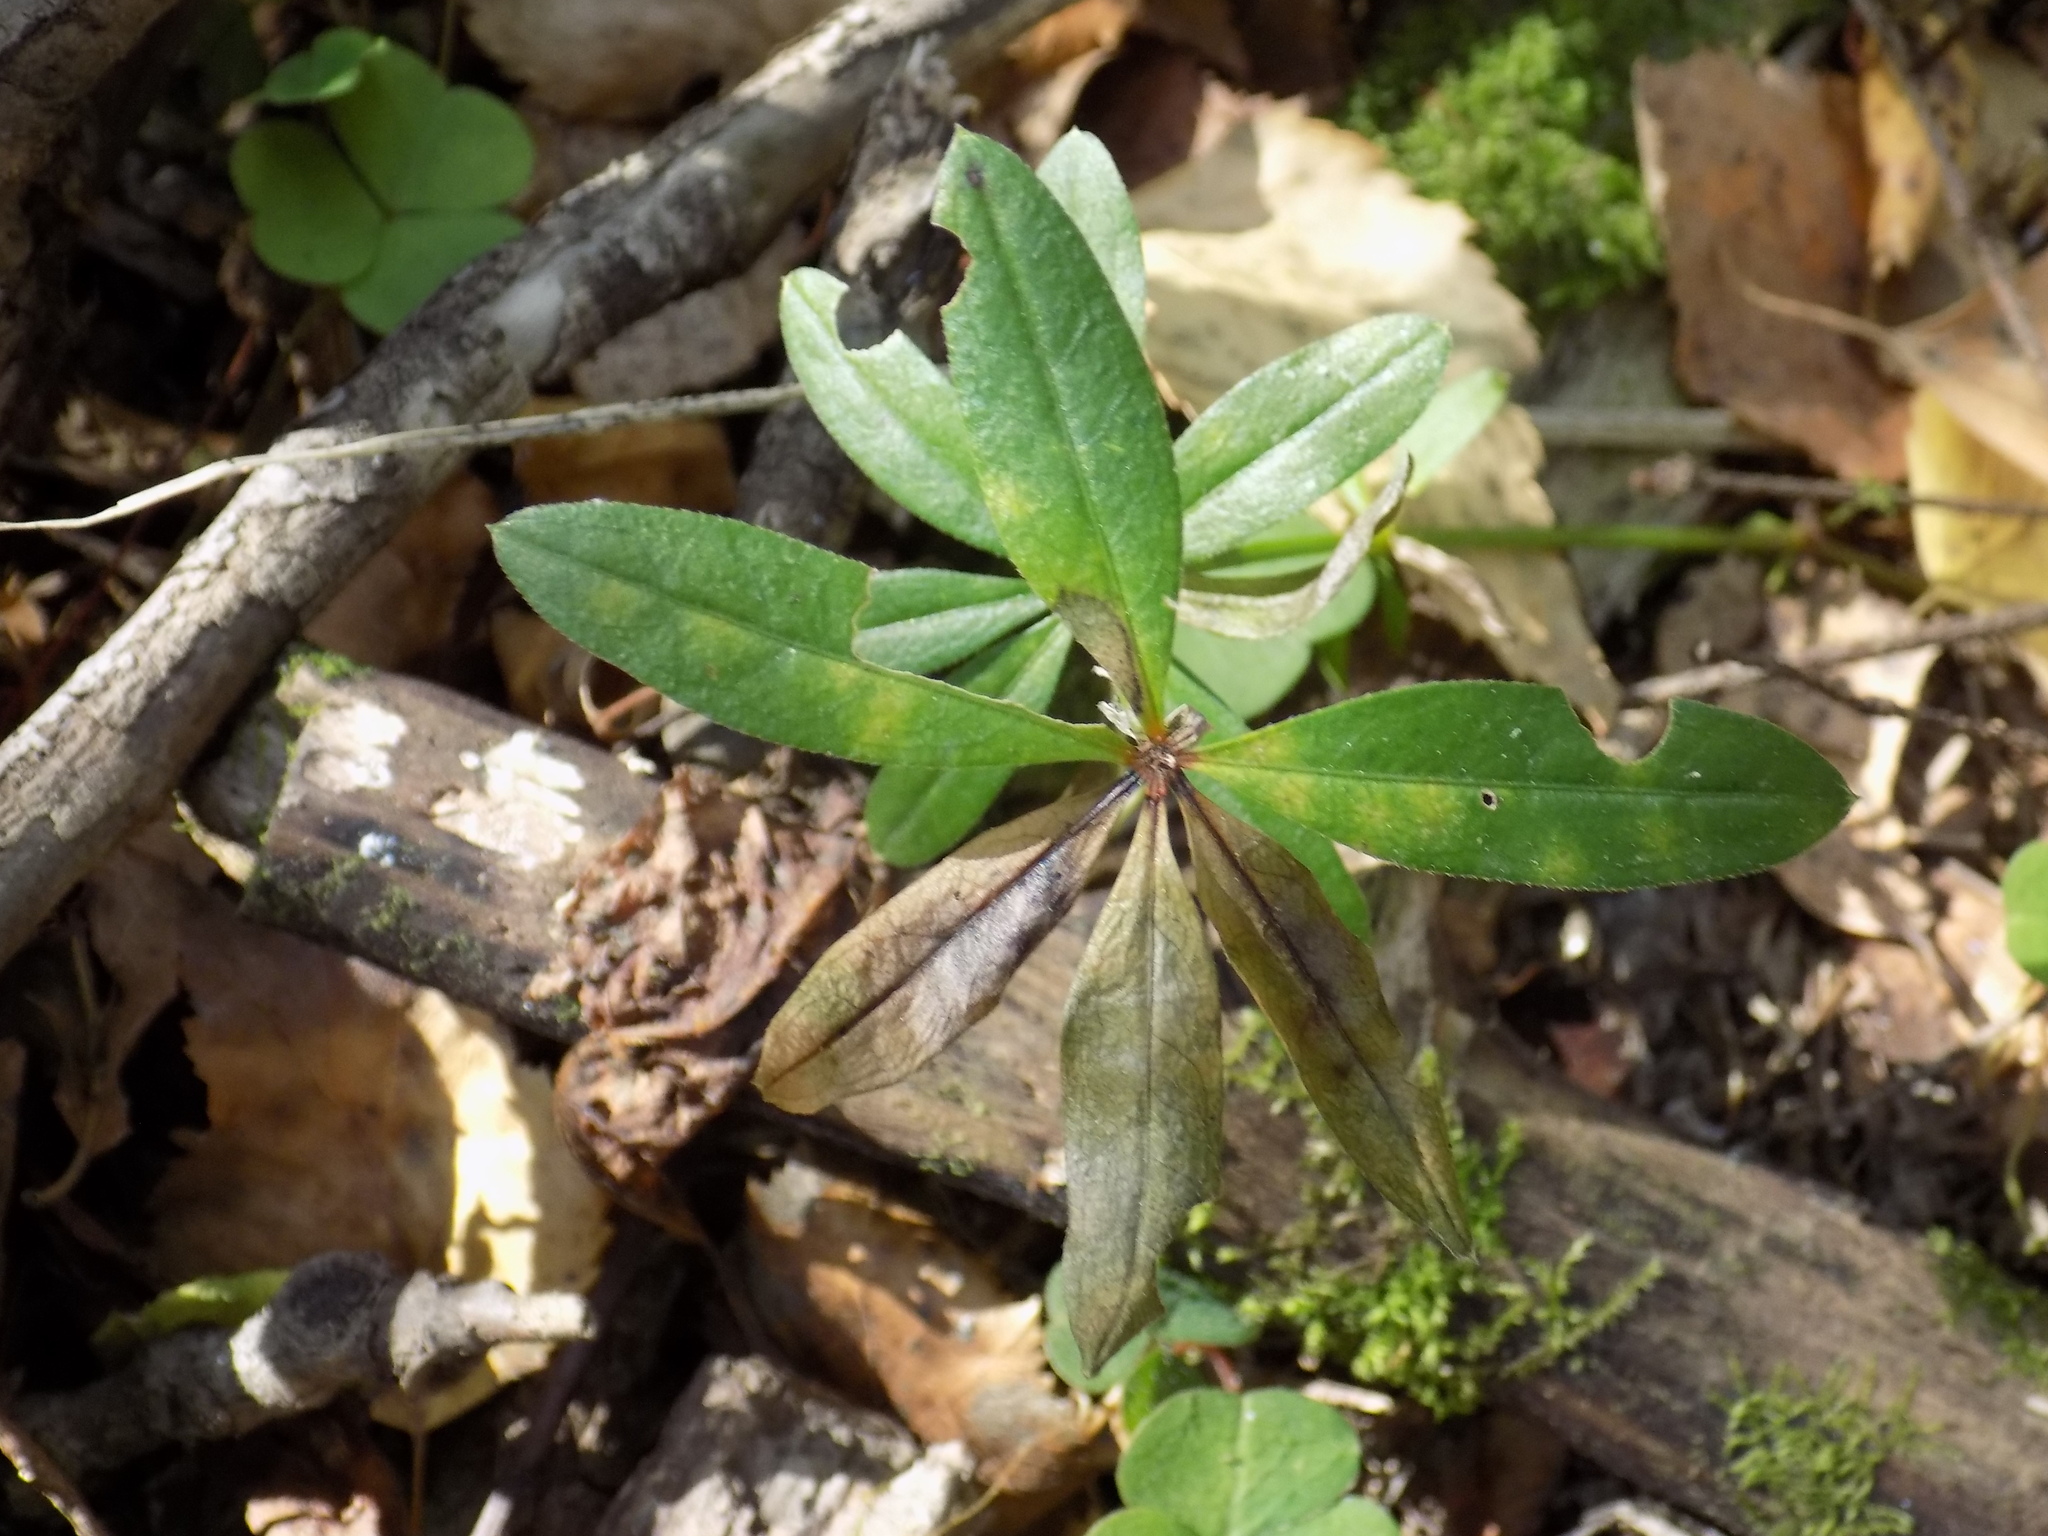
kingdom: Plantae
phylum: Tracheophyta
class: Magnoliopsida
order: Asterales
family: Asteraceae
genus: Cirsium
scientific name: Cirsium arvense
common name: Creeping thistle
